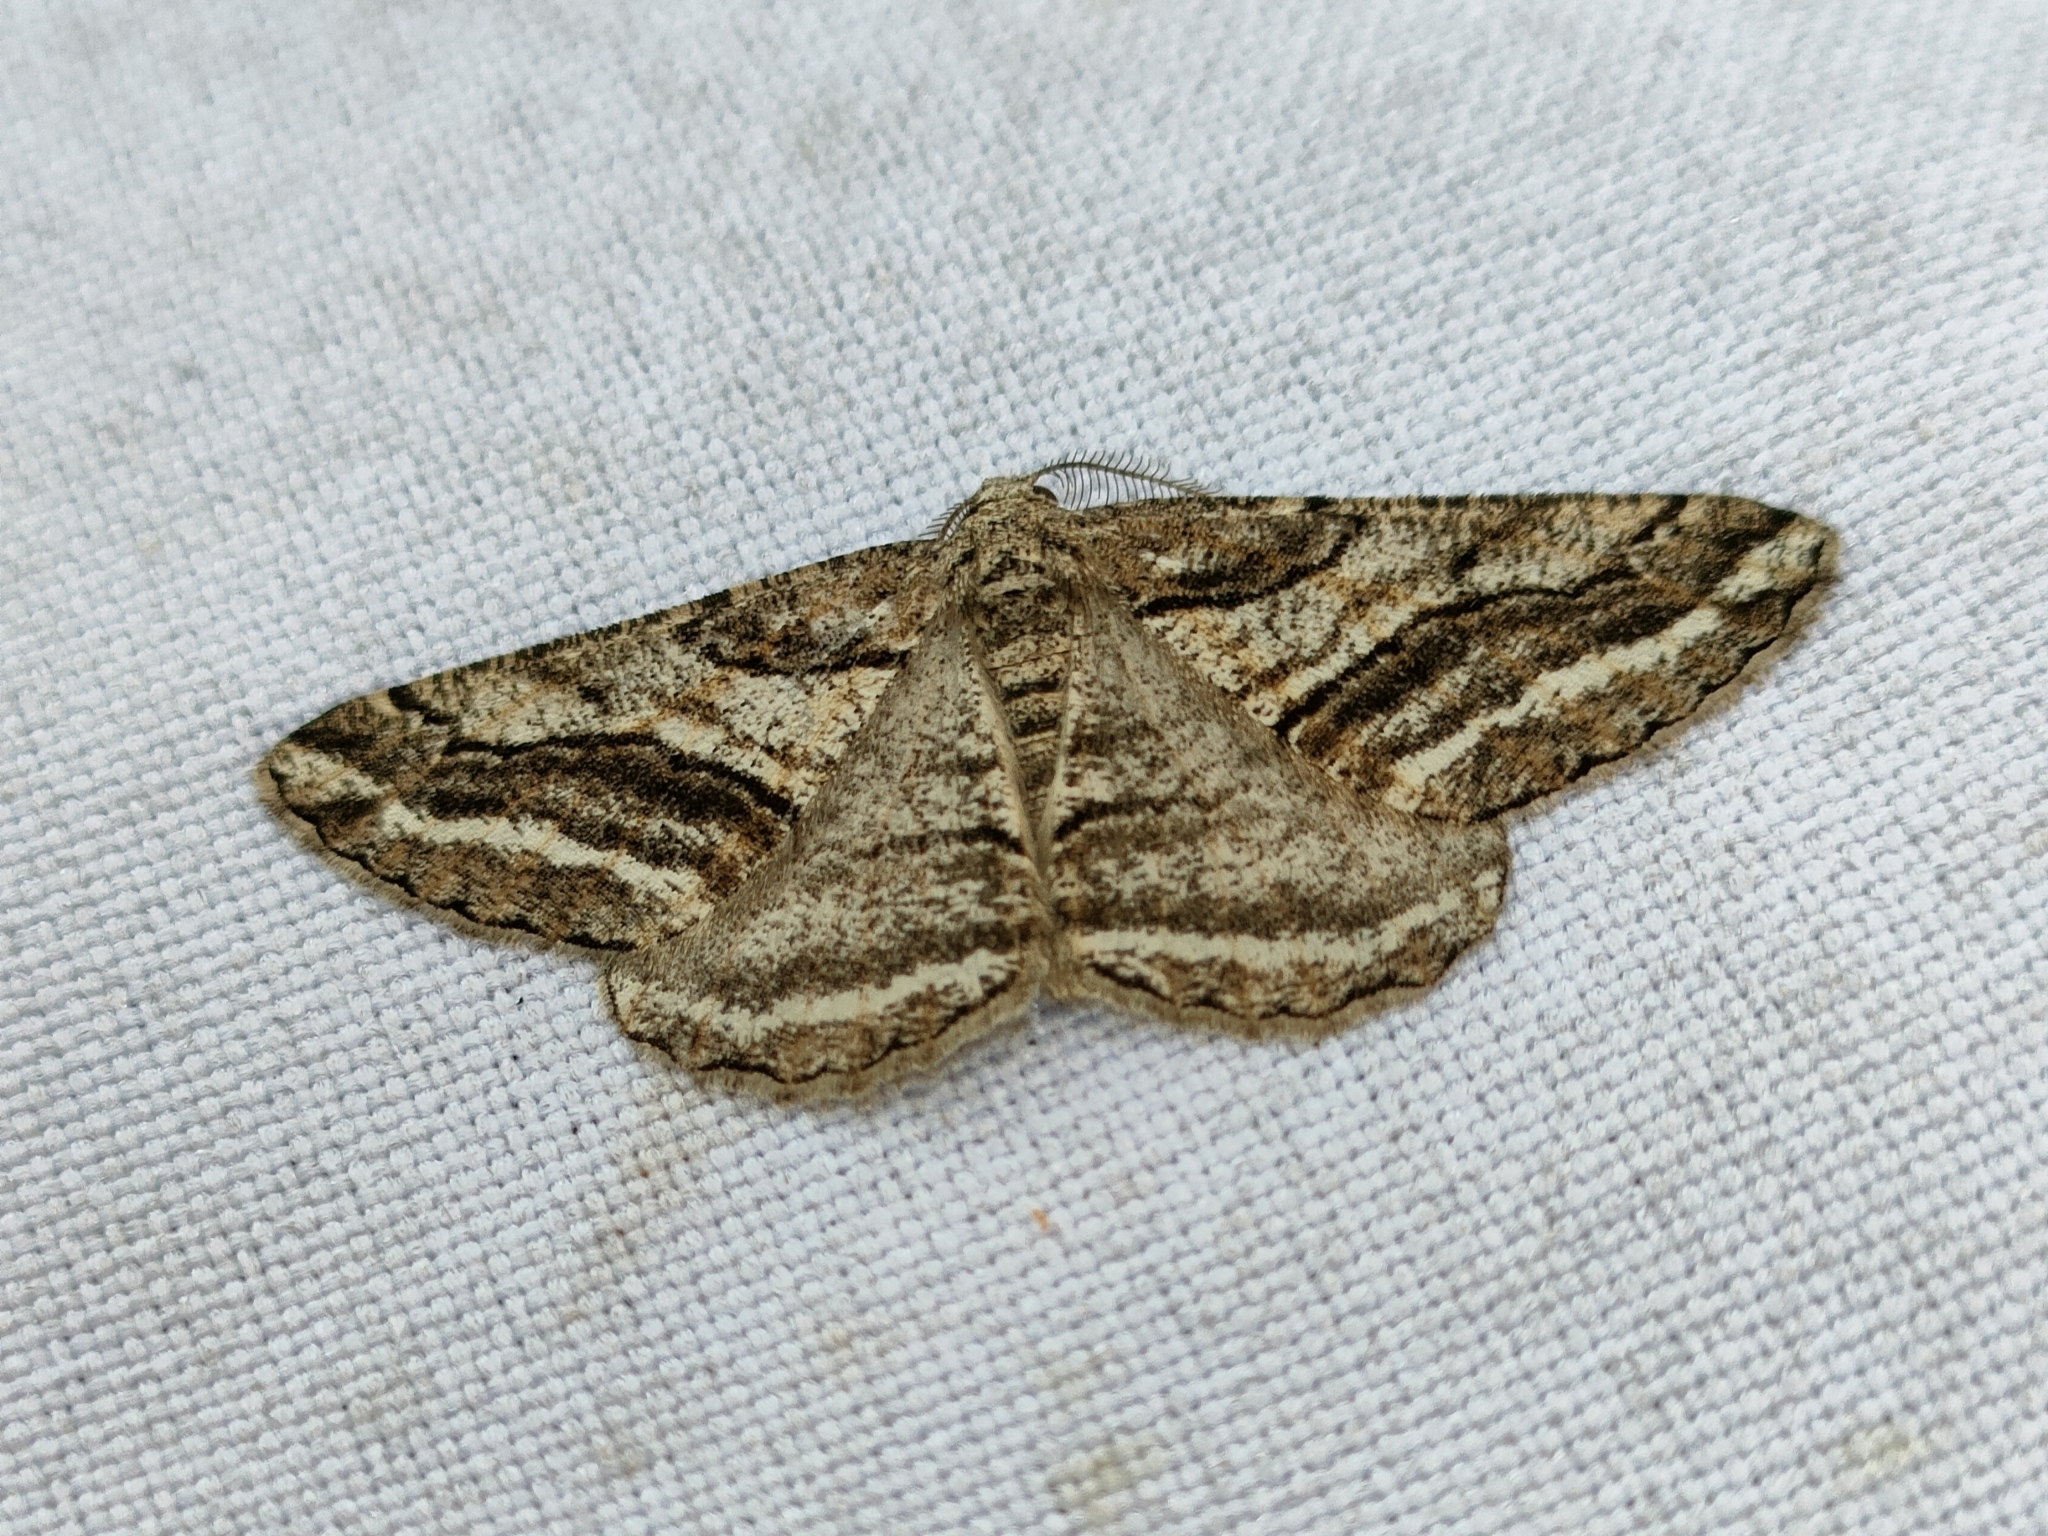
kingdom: Animalia
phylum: Arthropoda
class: Insecta
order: Lepidoptera
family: Geometridae
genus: Calamodes
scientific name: Calamodes occitanaria
